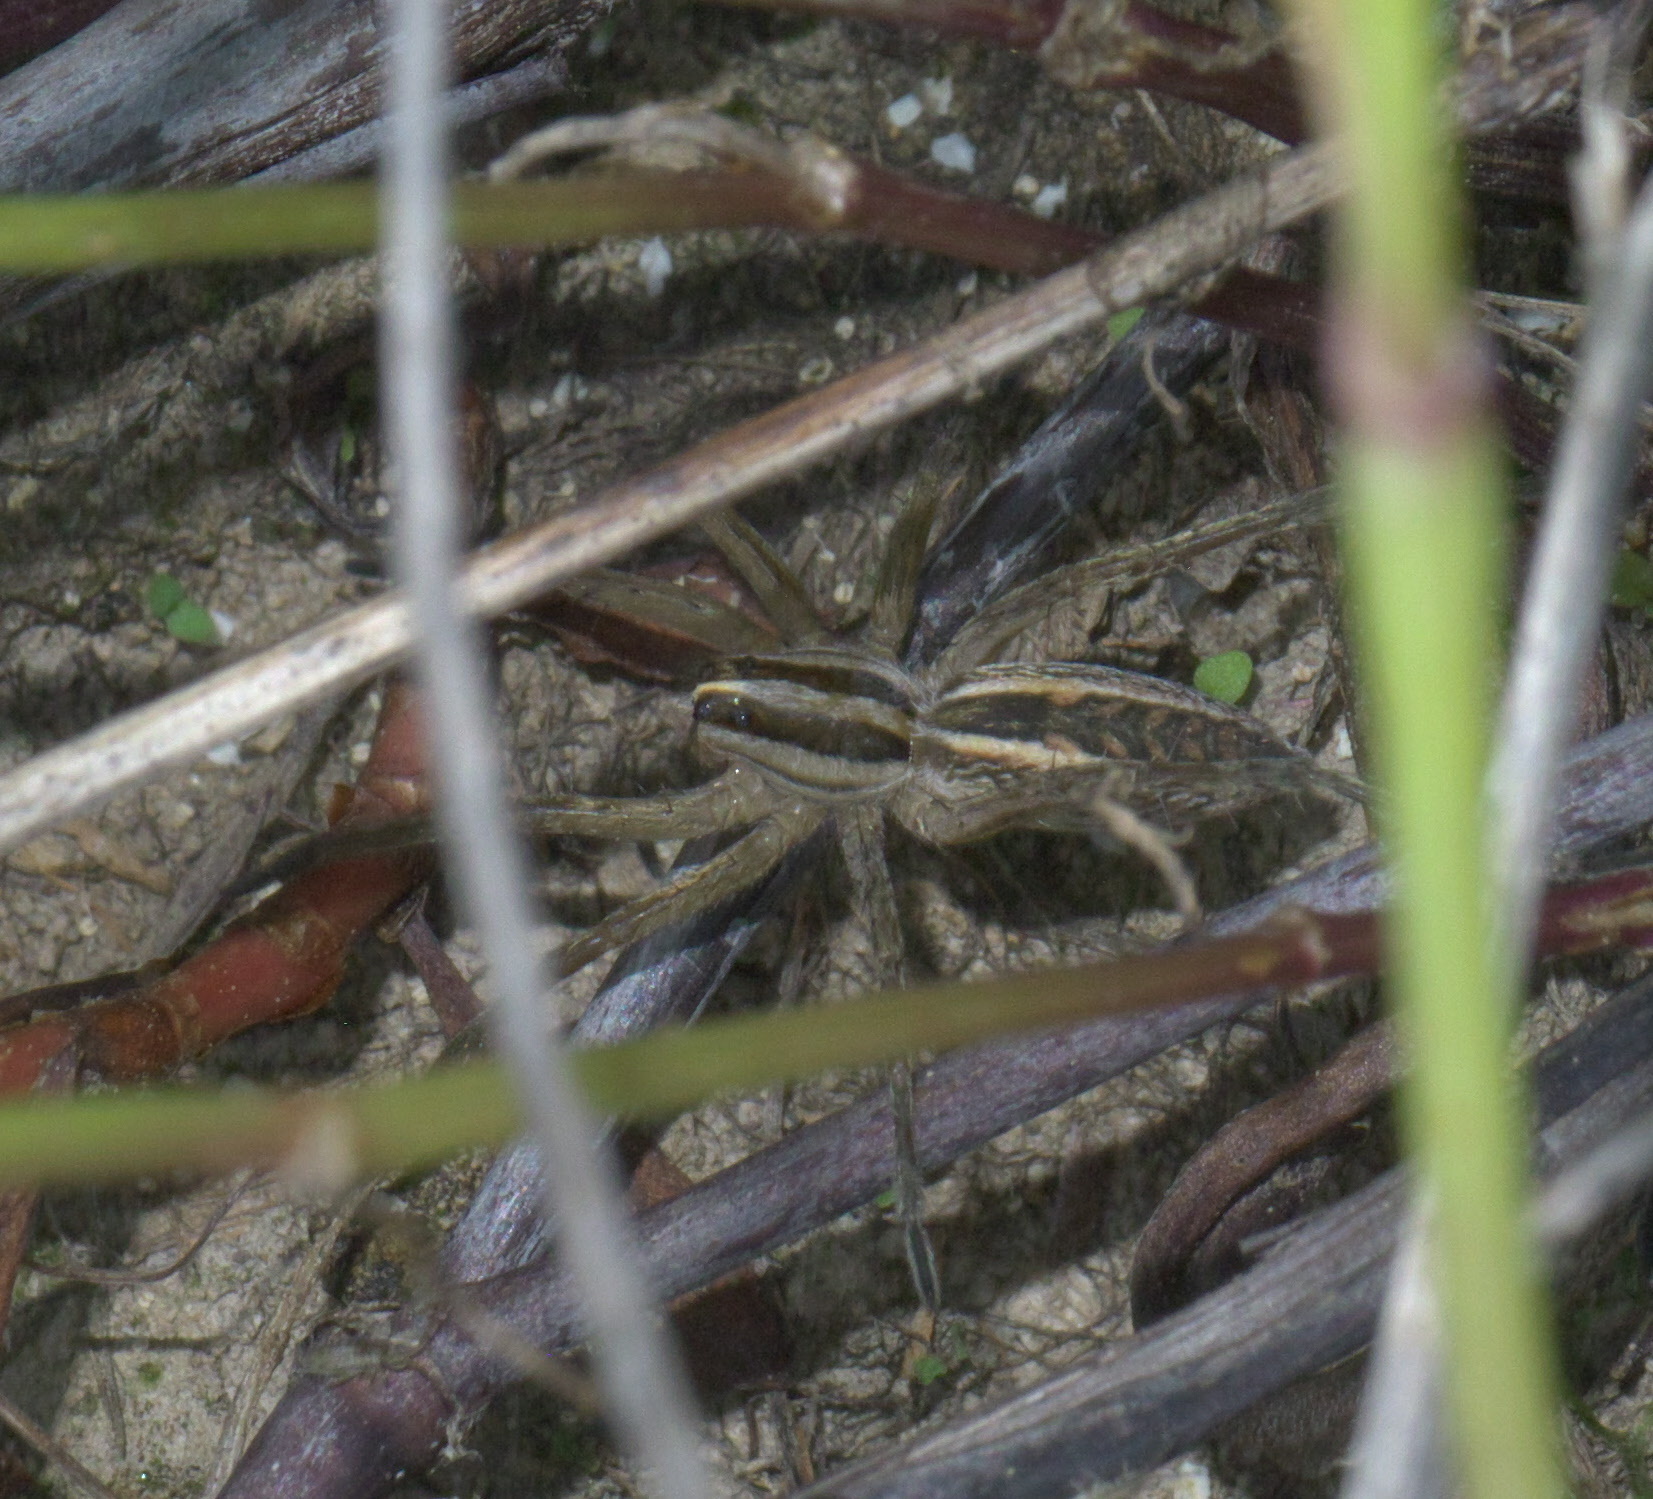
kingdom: Animalia
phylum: Arthropoda
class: Arachnida
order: Araneae
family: Lycosidae
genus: Rabidosa
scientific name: Rabidosa rabida
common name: Rabid wolf spider
